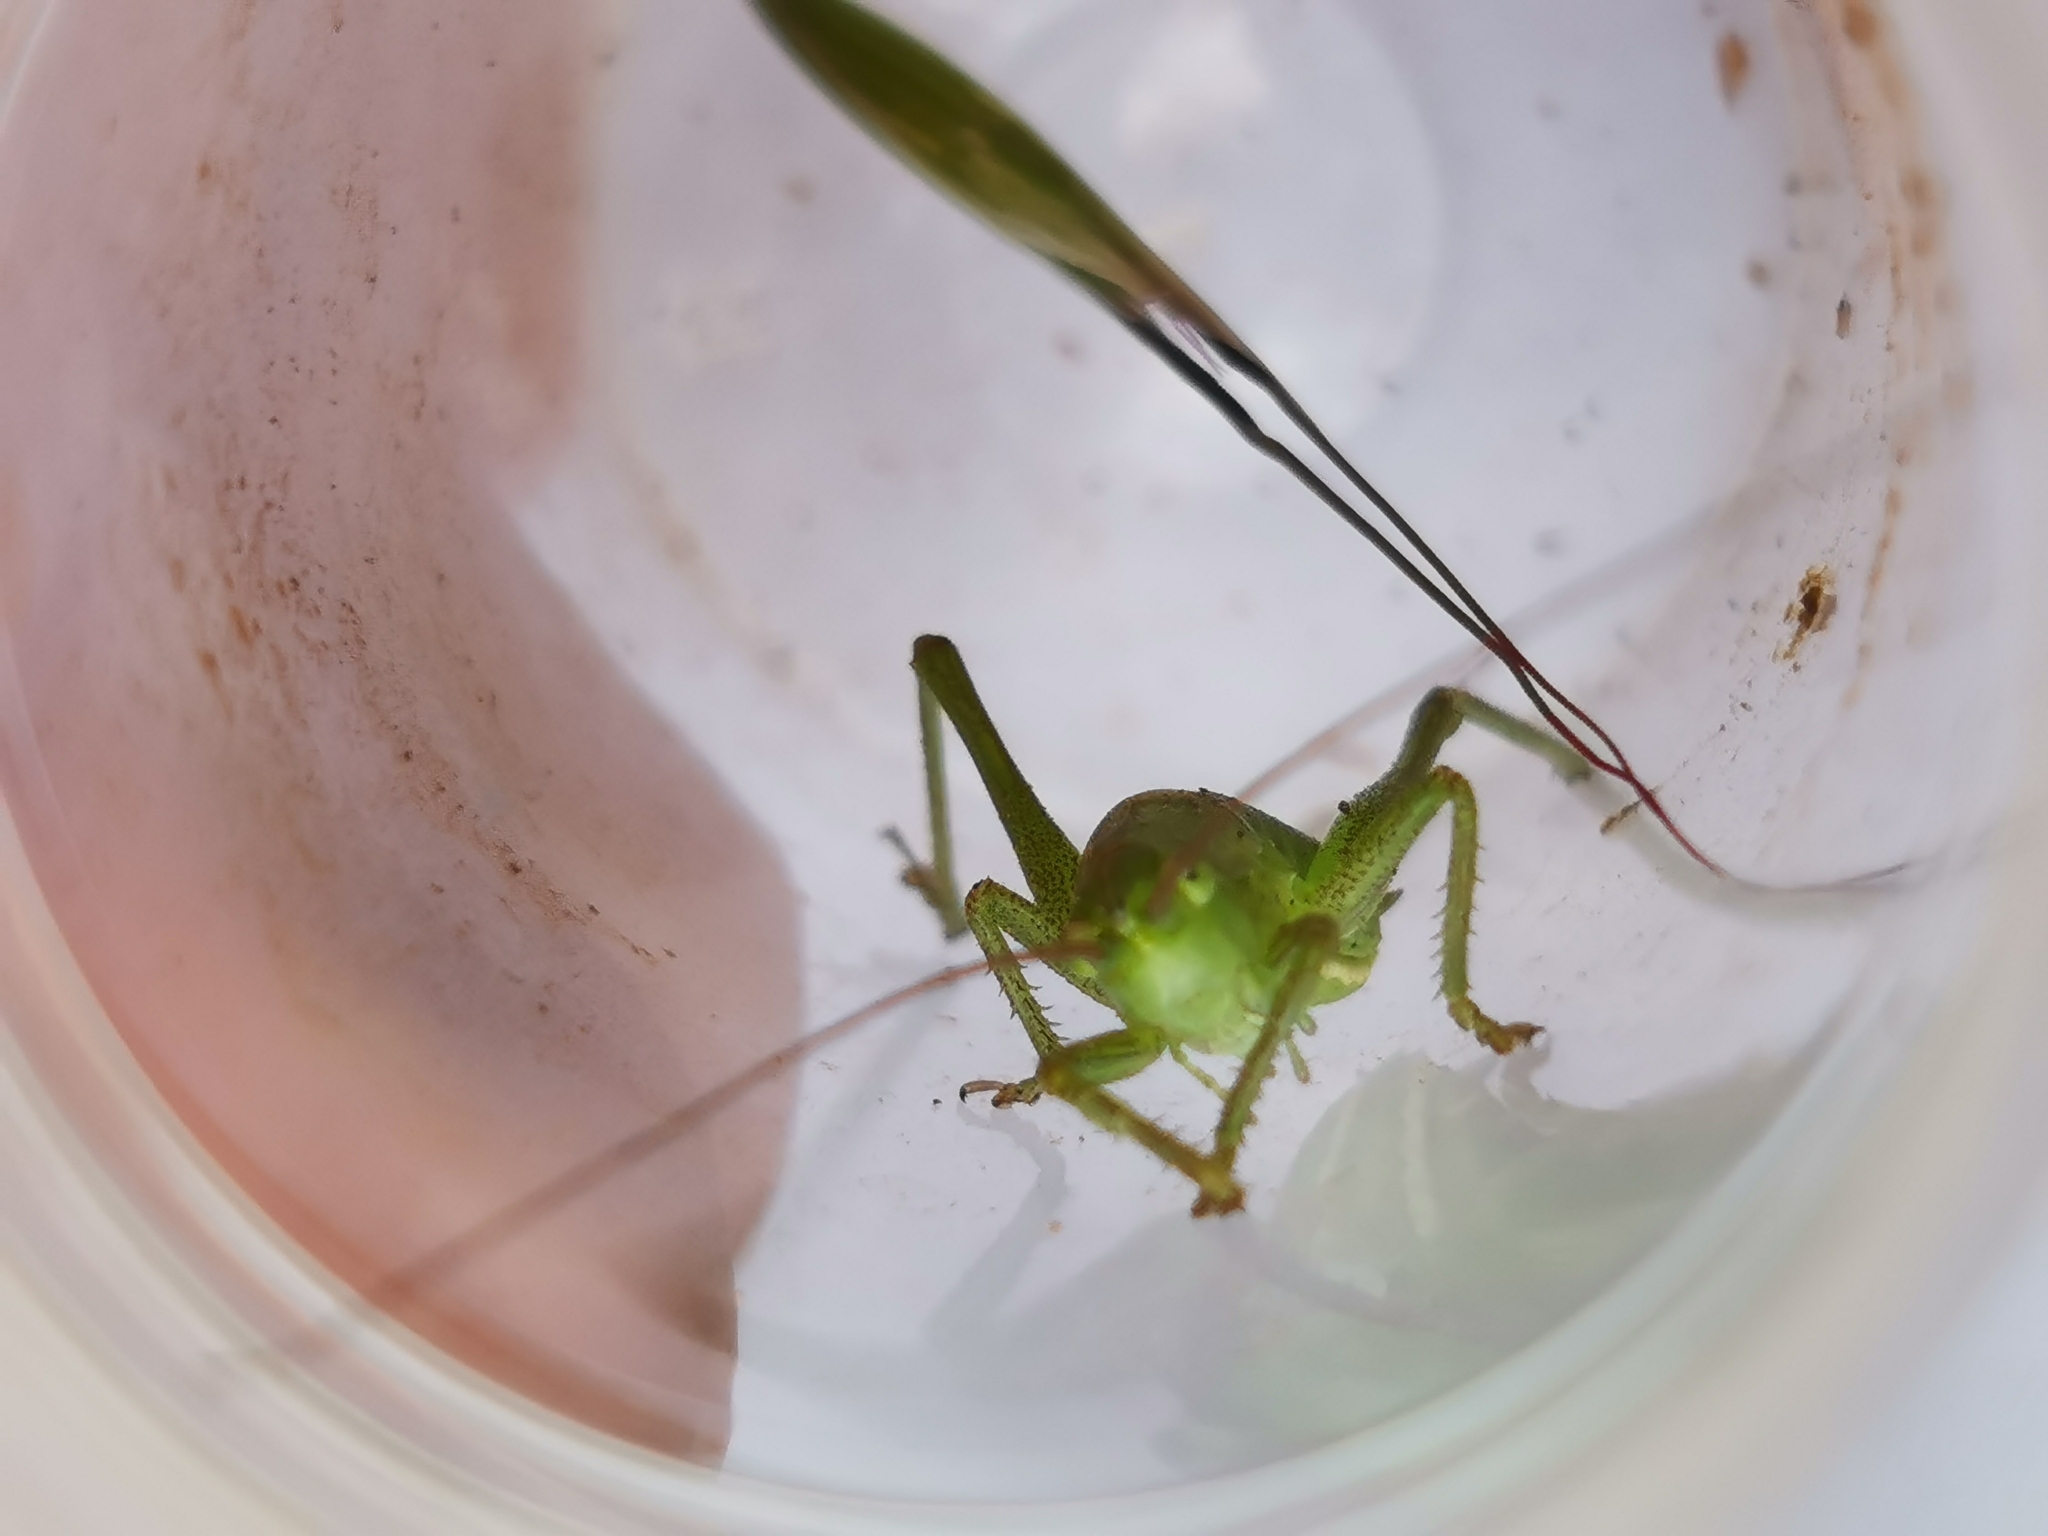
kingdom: Animalia
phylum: Arthropoda
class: Insecta
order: Orthoptera
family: Tettigoniidae
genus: Tettigonia
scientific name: Tettigonia viridissima
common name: Great green bush-cricket
